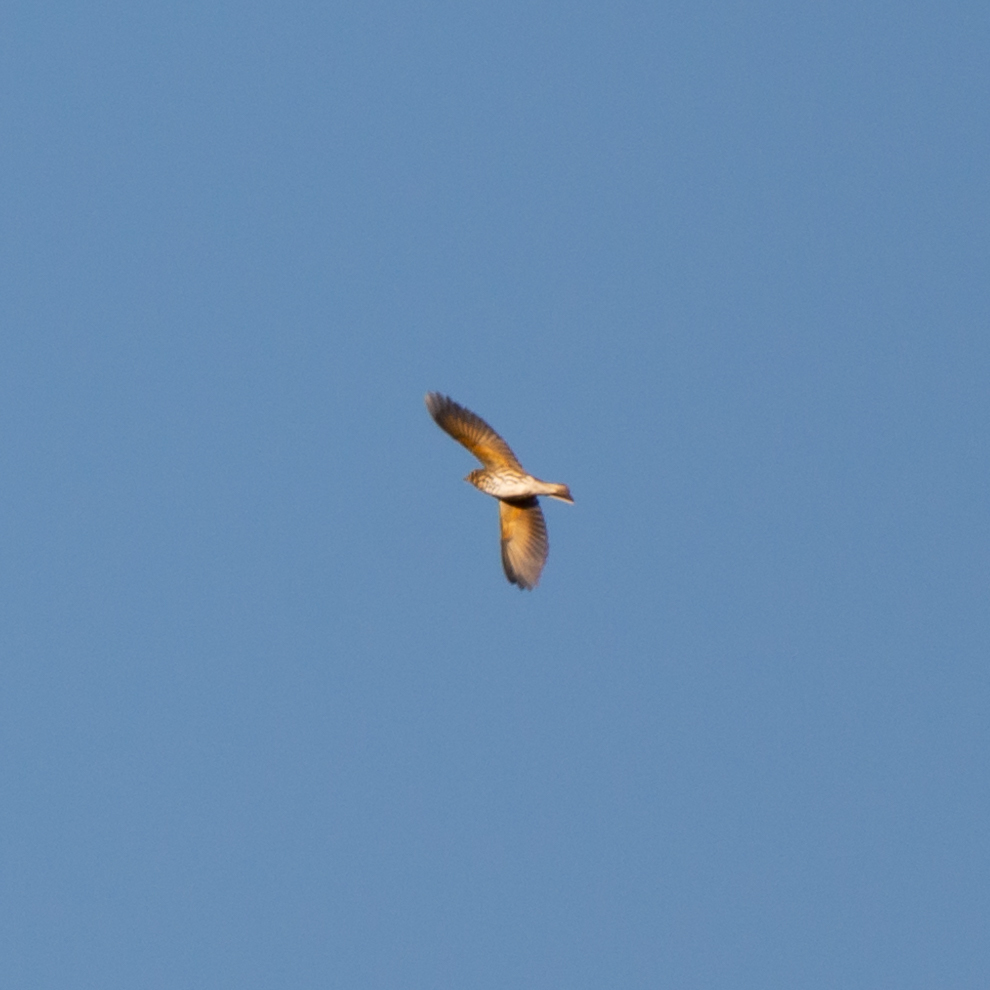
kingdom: Animalia
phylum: Chordata
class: Aves
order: Passeriformes
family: Turdidae
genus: Turdus
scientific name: Turdus philomelos
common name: Song thrush
